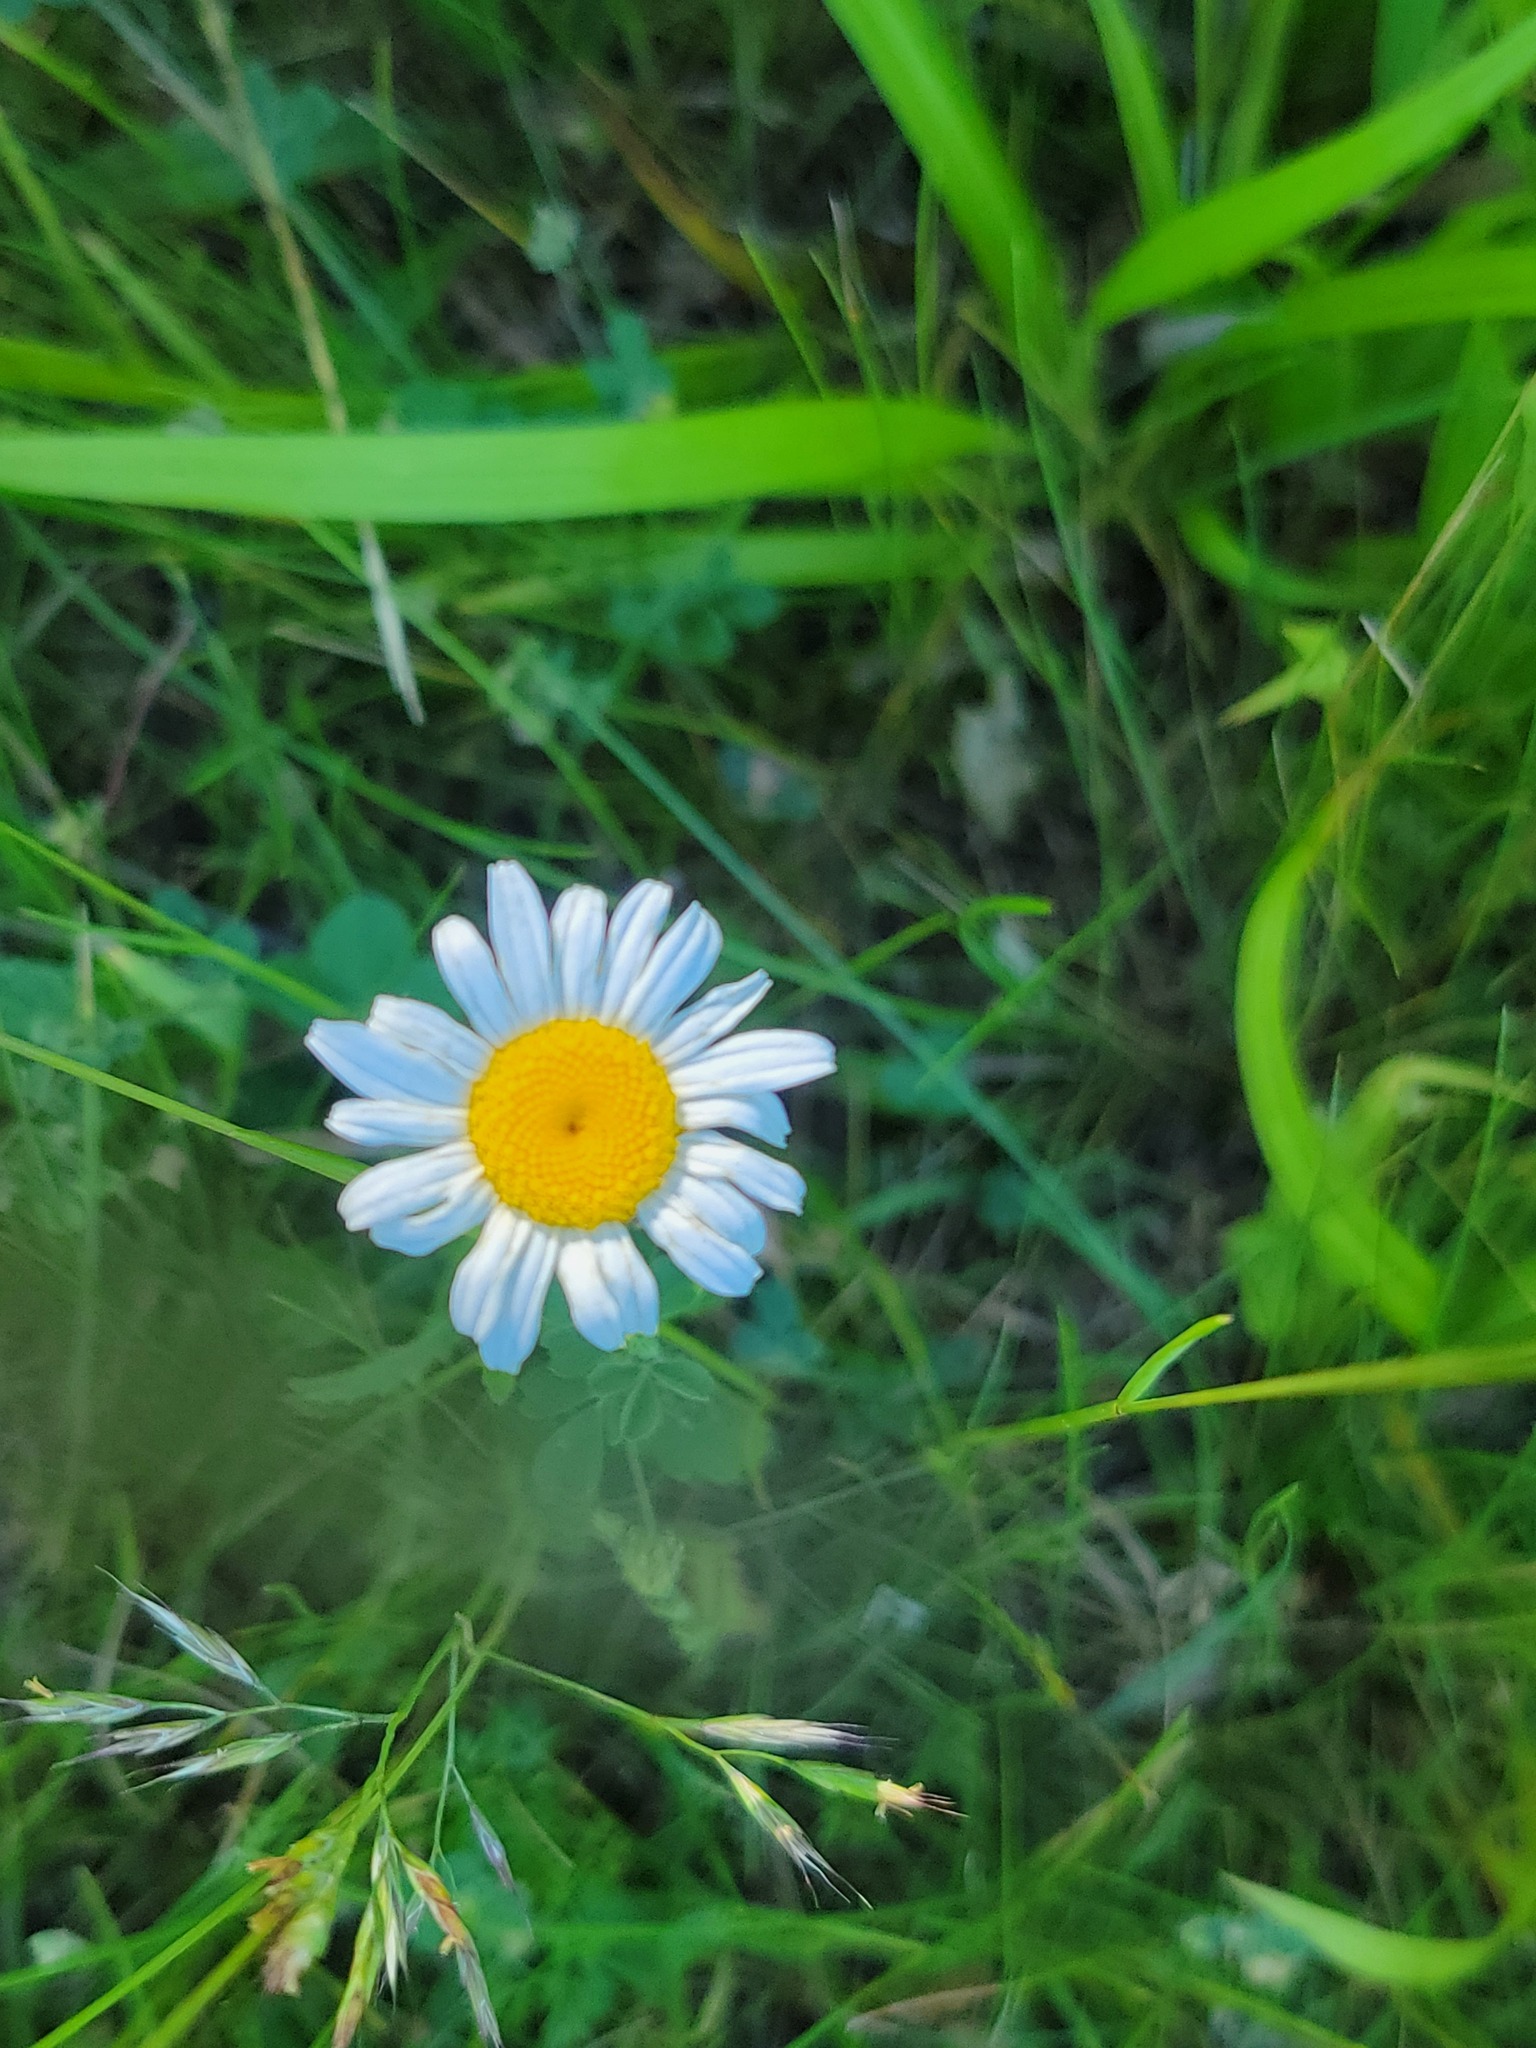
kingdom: Plantae
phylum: Tracheophyta
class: Magnoliopsida
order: Asterales
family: Asteraceae
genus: Leucanthemum
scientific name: Leucanthemum vulgare
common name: Oxeye daisy
